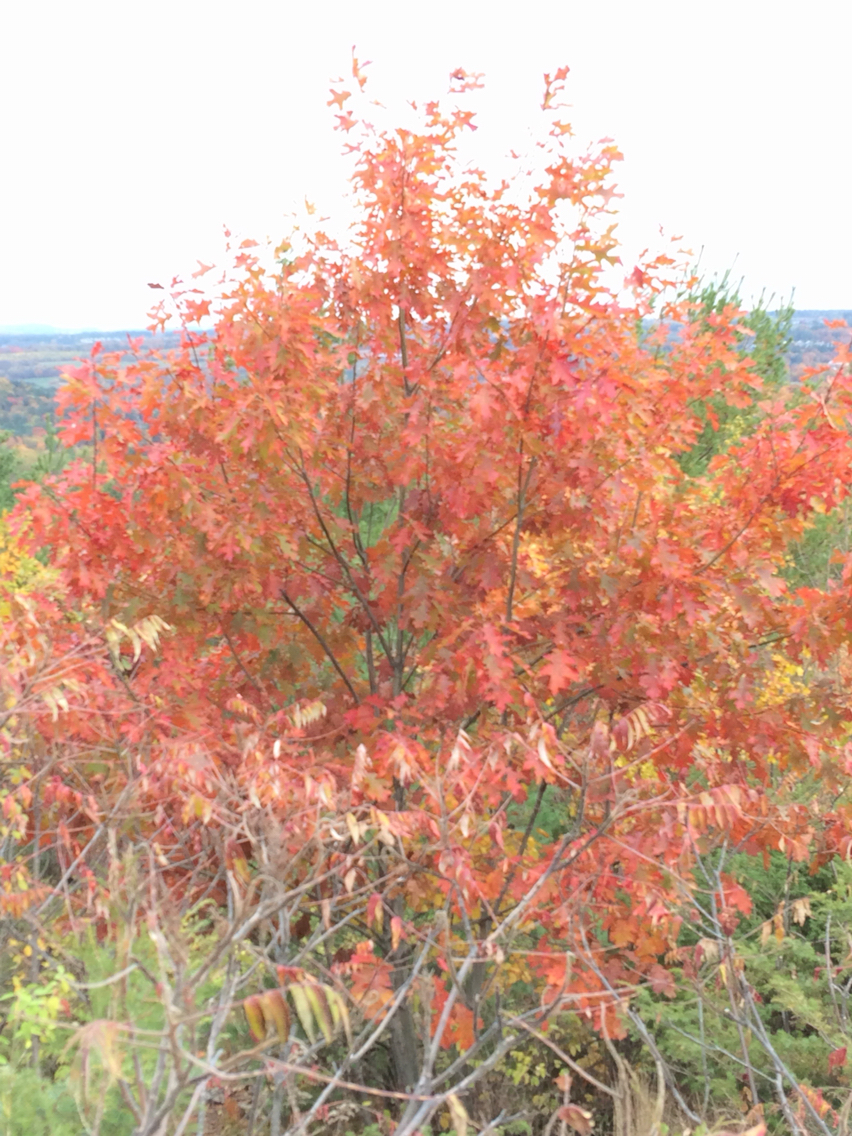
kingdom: Plantae
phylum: Tracheophyta
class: Magnoliopsida
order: Fagales
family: Fagaceae
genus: Quercus
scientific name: Quercus rubra
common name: Red oak
